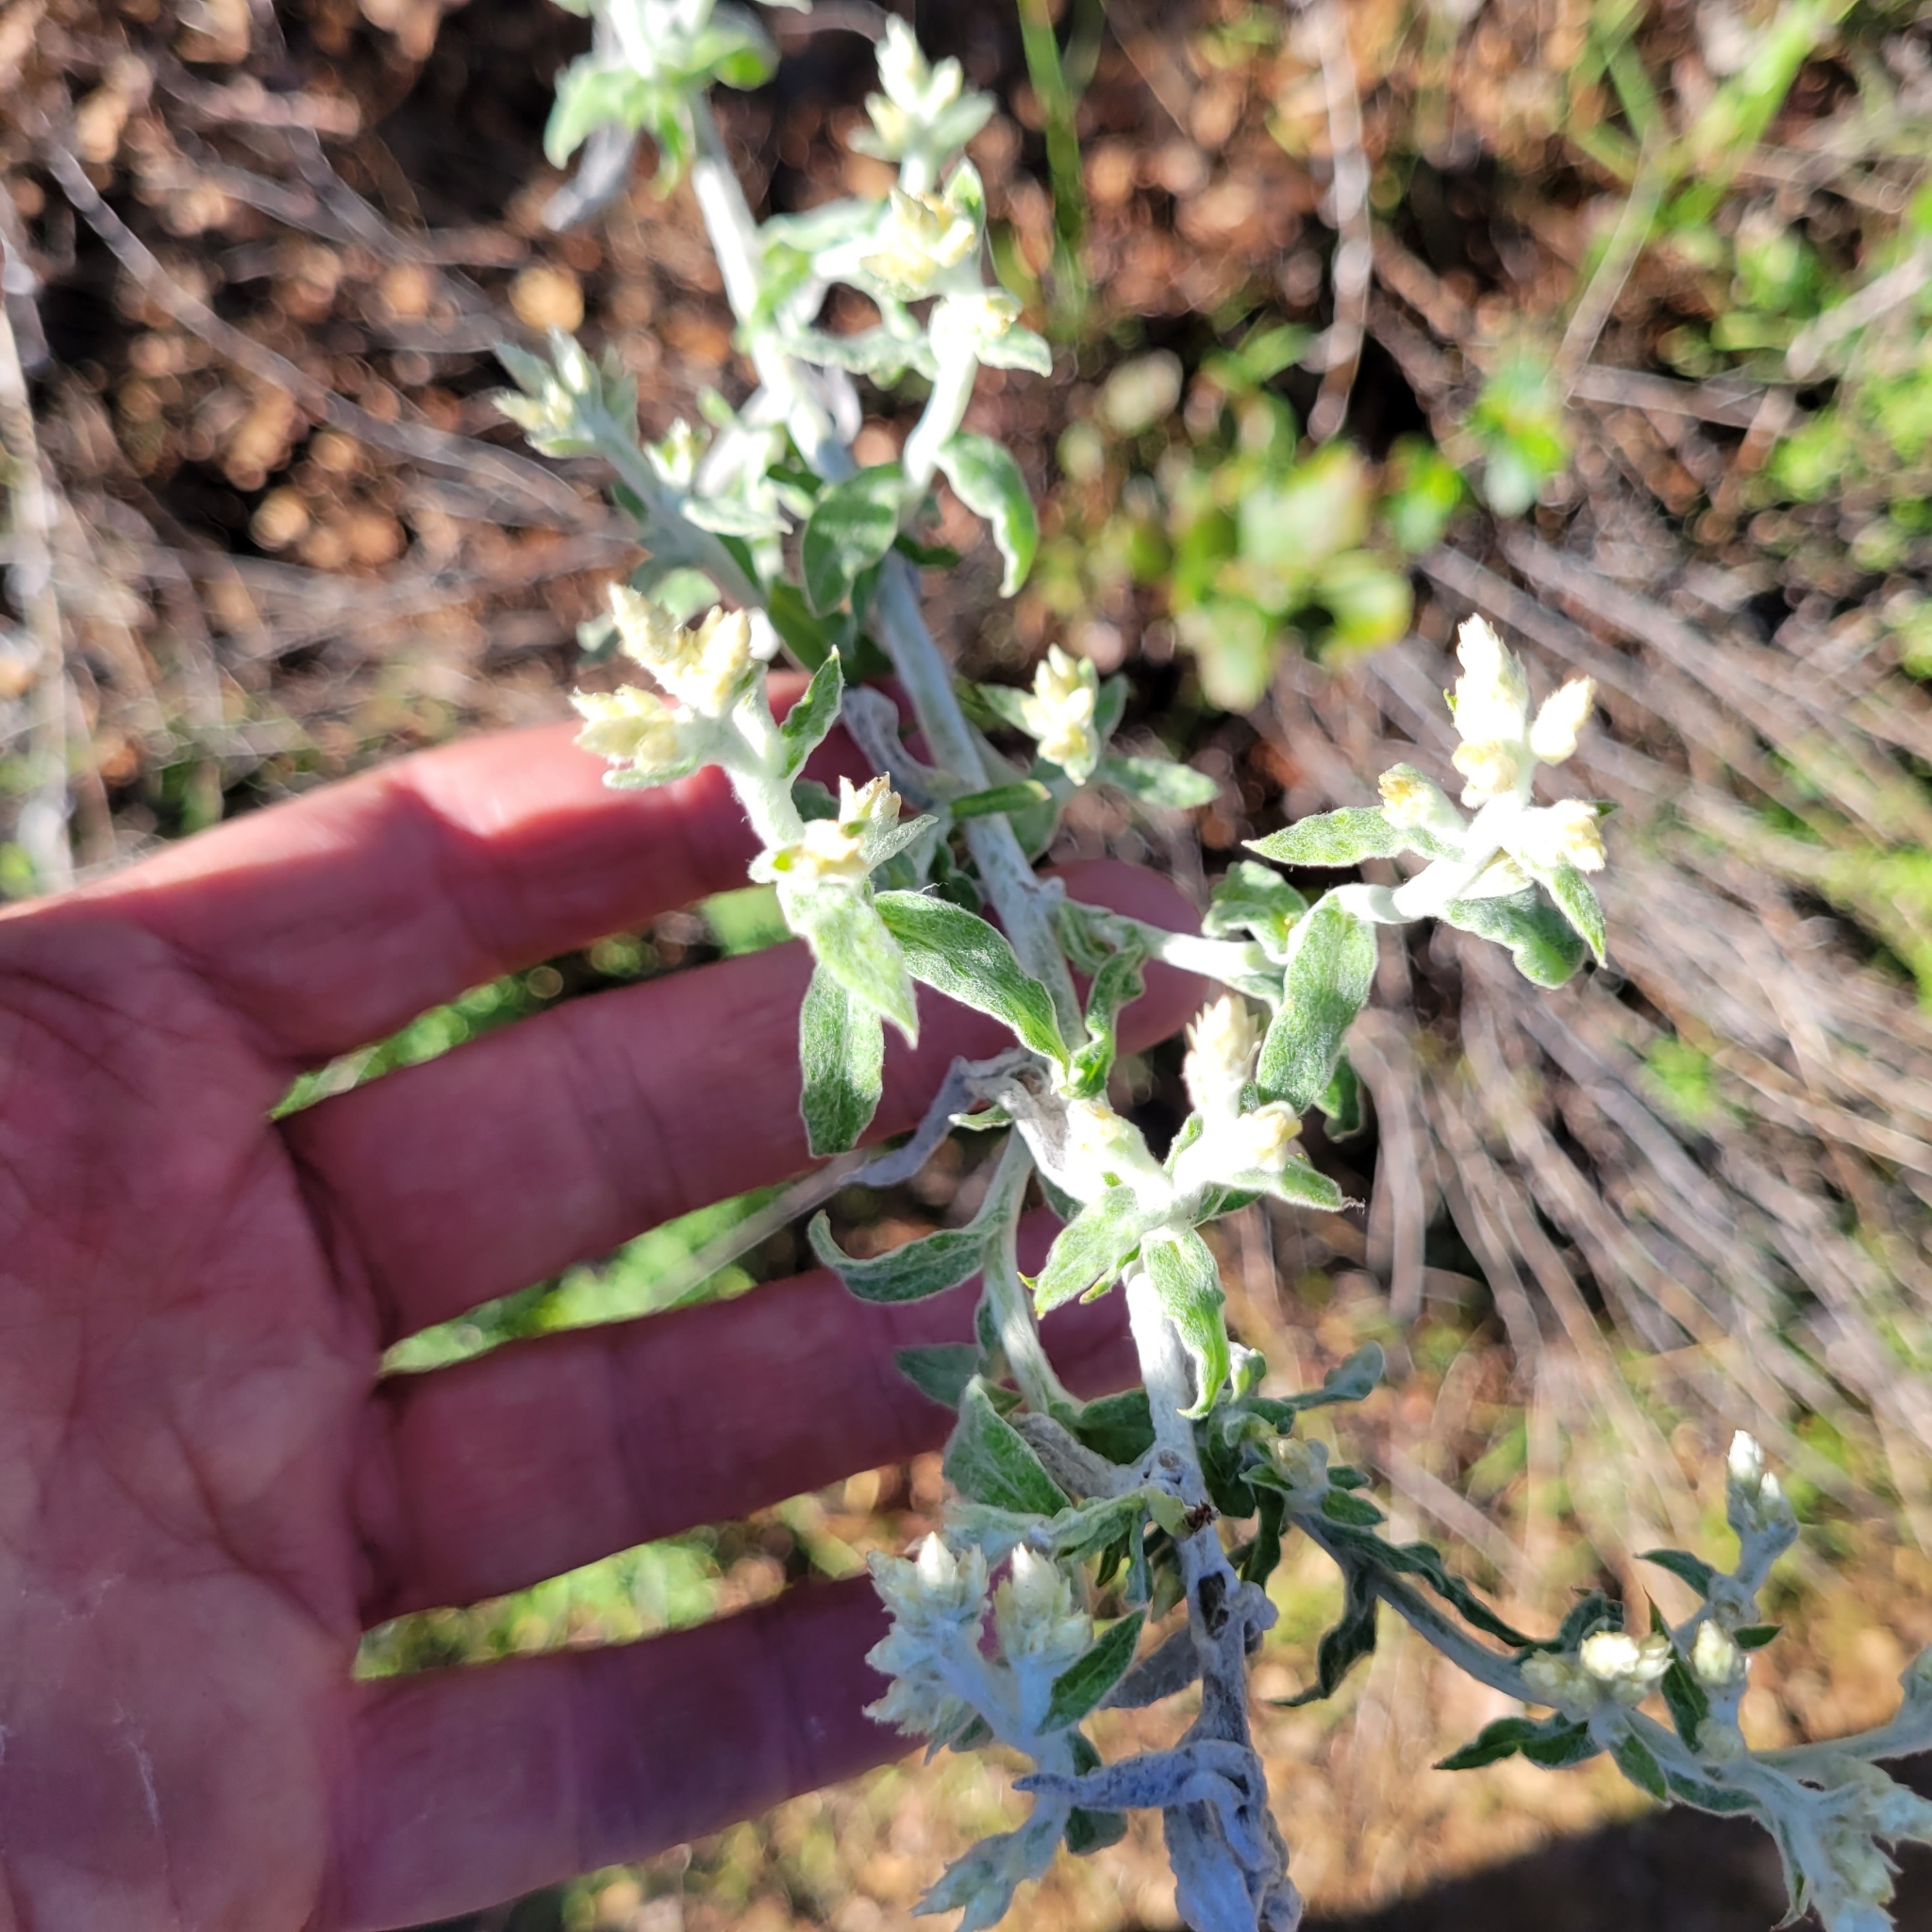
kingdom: Plantae
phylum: Tracheophyta
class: Magnoliopsida
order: Asterales
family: Asteraceae
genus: Pseudognaphalium
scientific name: Pseudognaphalium microcephalum
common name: San diego rabbit-tobacco
